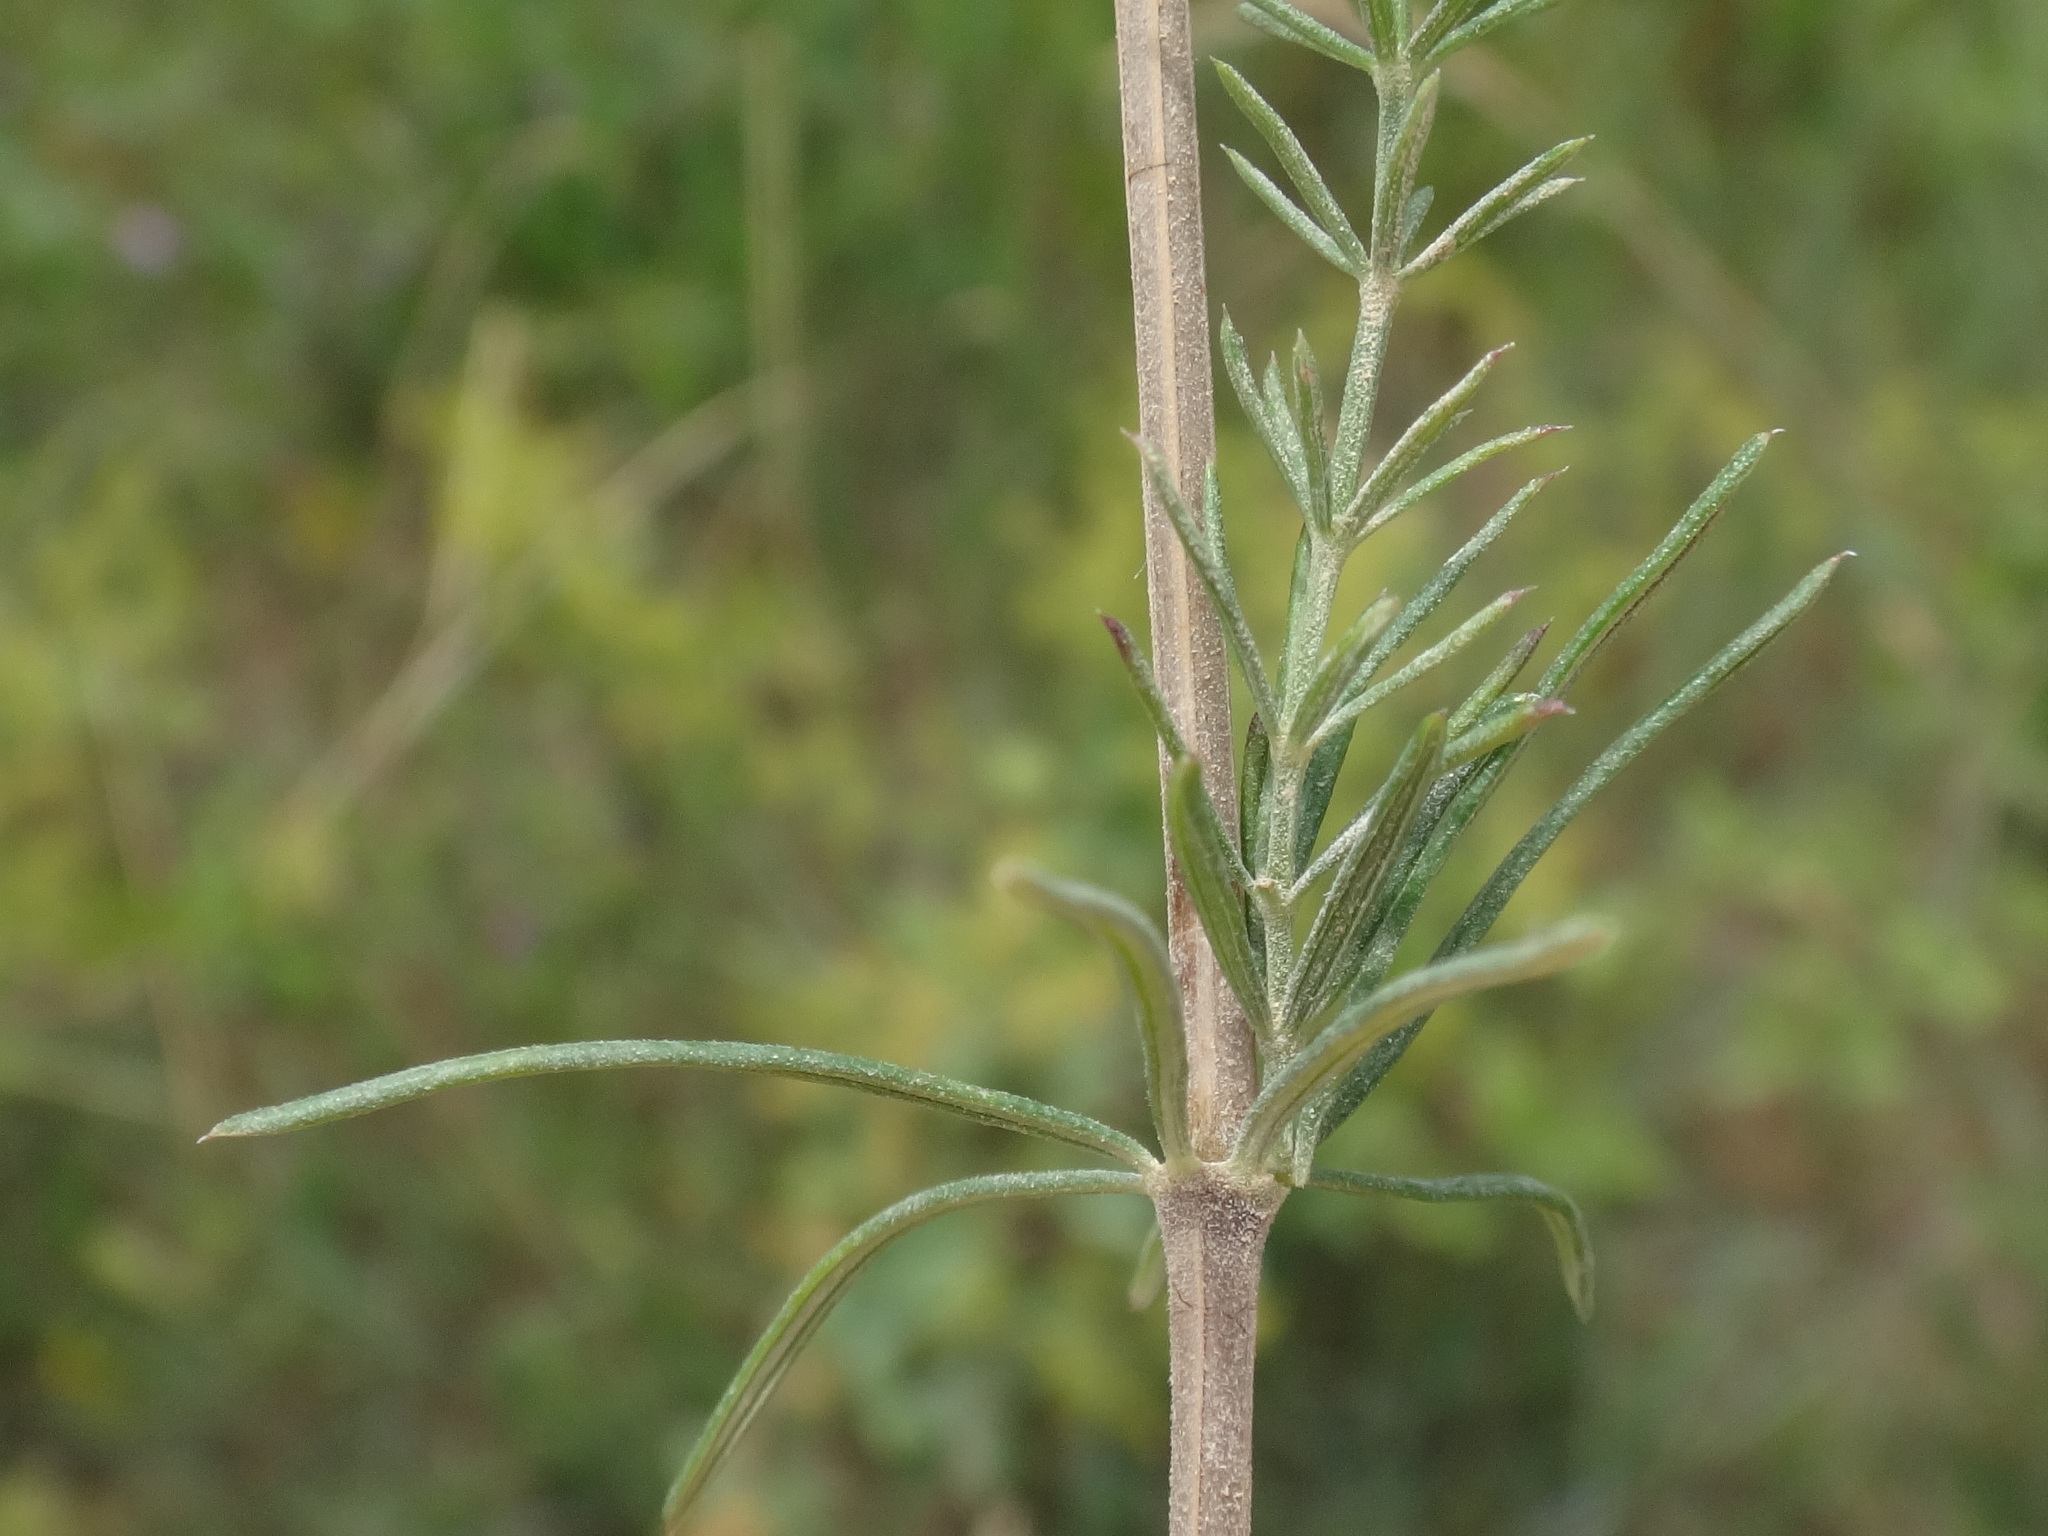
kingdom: Plantae
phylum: Tracheophyta
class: Magnoliopsida
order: Gentianales
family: Rubiaceae
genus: Galium
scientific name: Galium verum
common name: Lady's bedstraw
